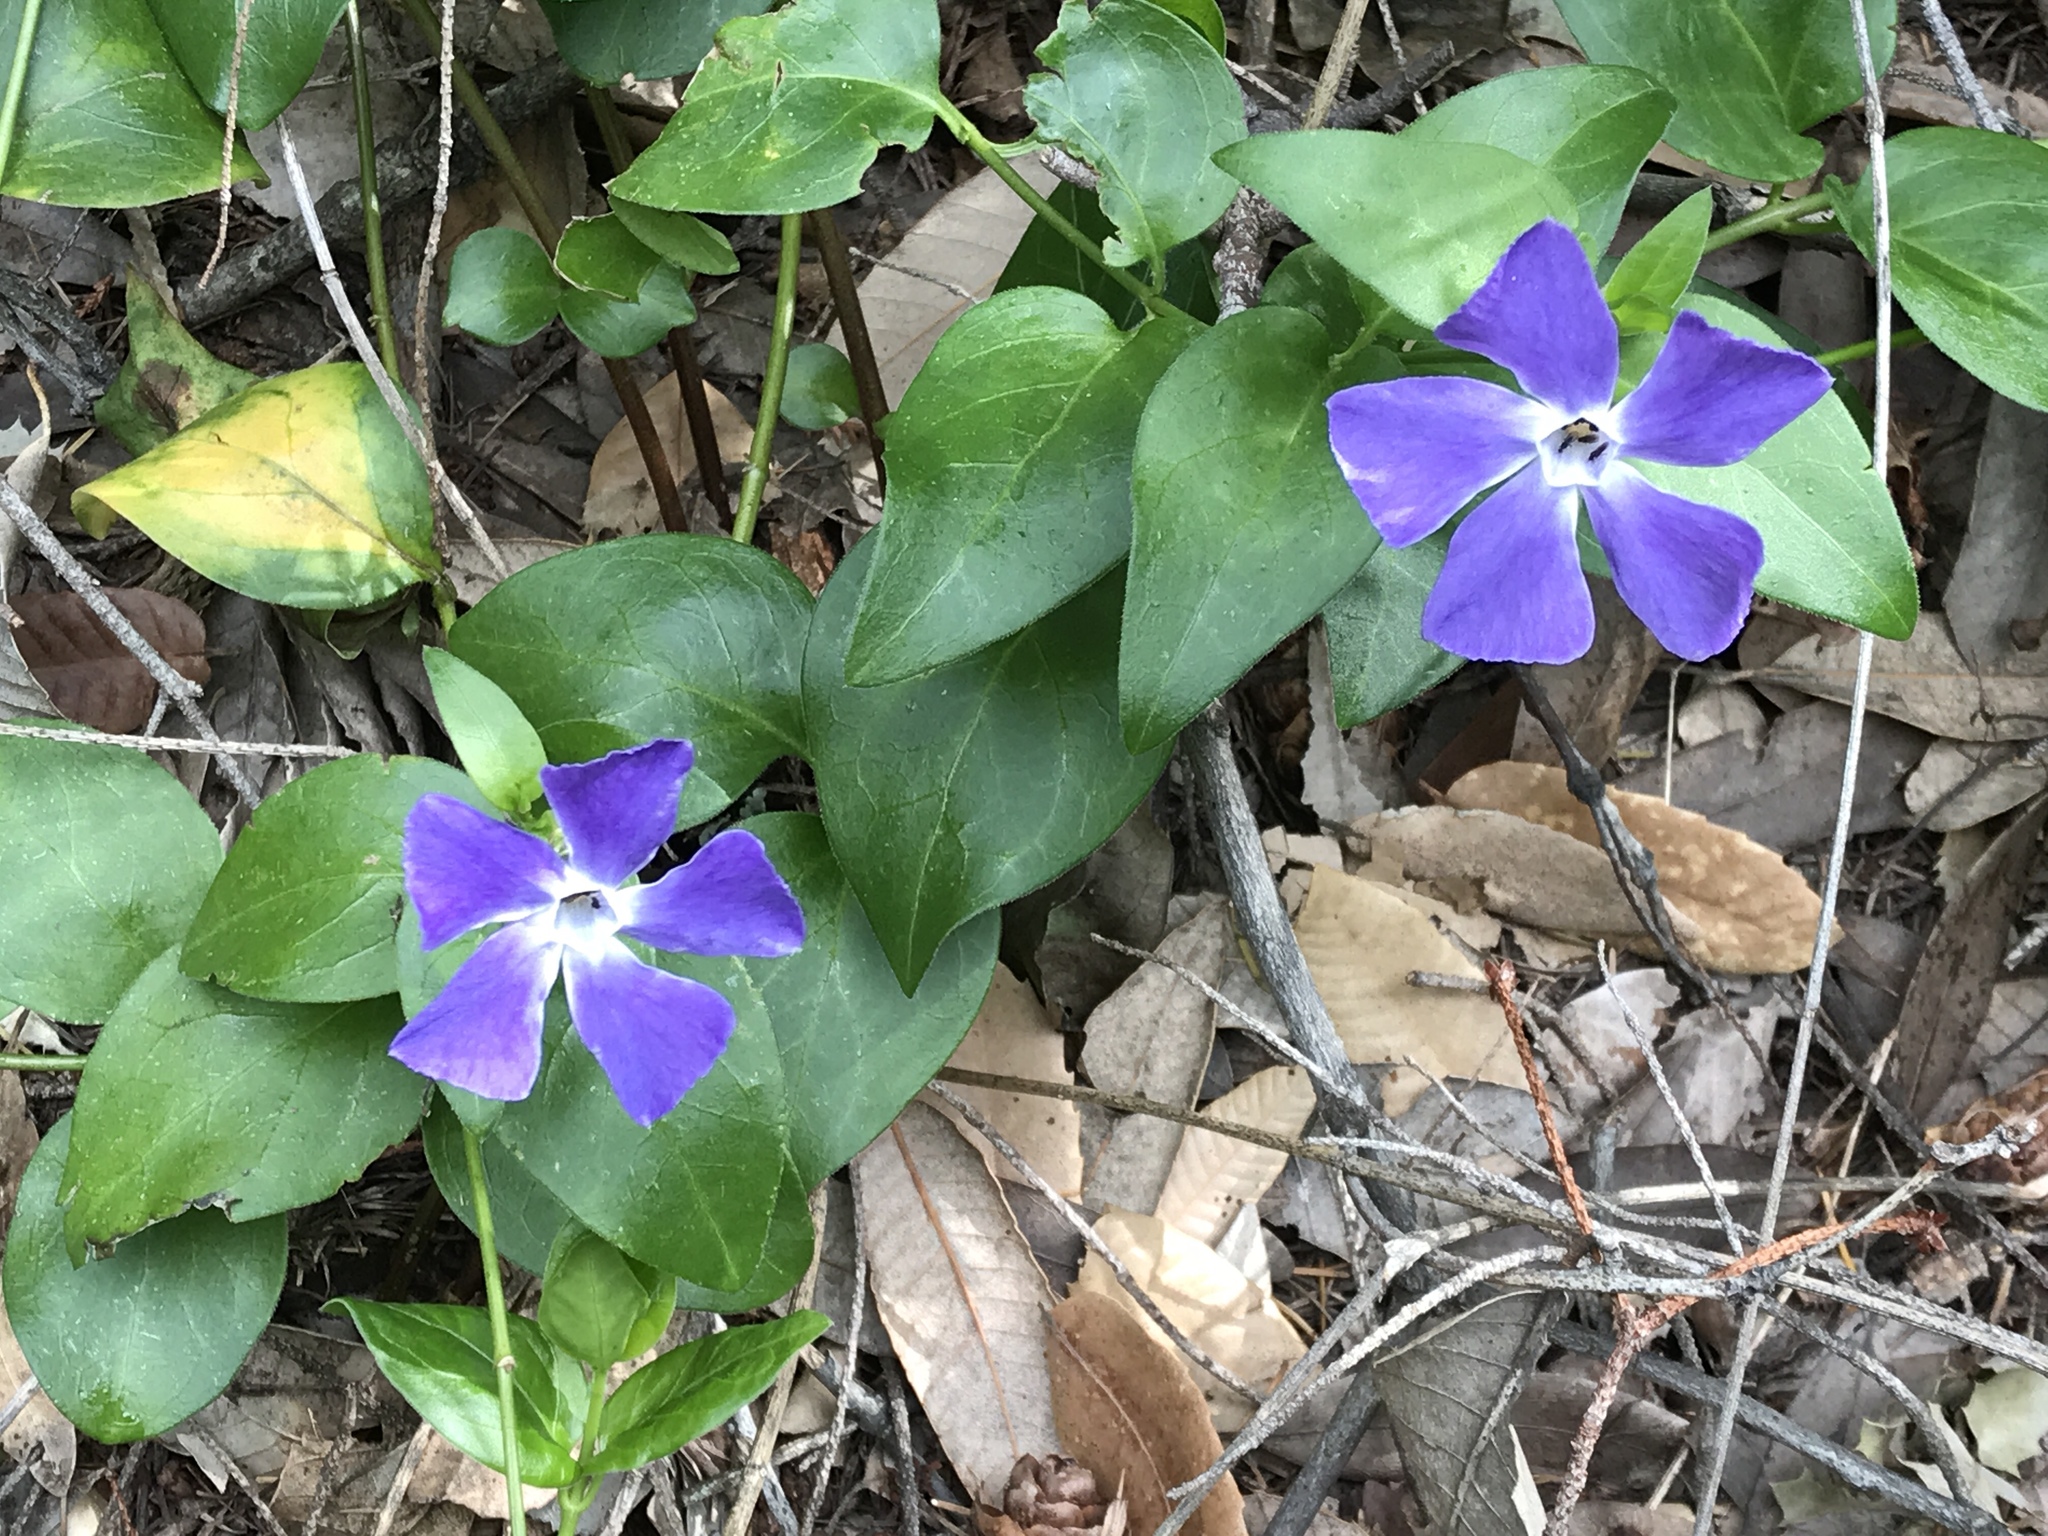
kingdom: Plantae
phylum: Tracheophyta
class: Magnoliopsida
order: Gentianales
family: Apocynaceae
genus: Vinca
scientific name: Vinca major
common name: Greater periwinkle
